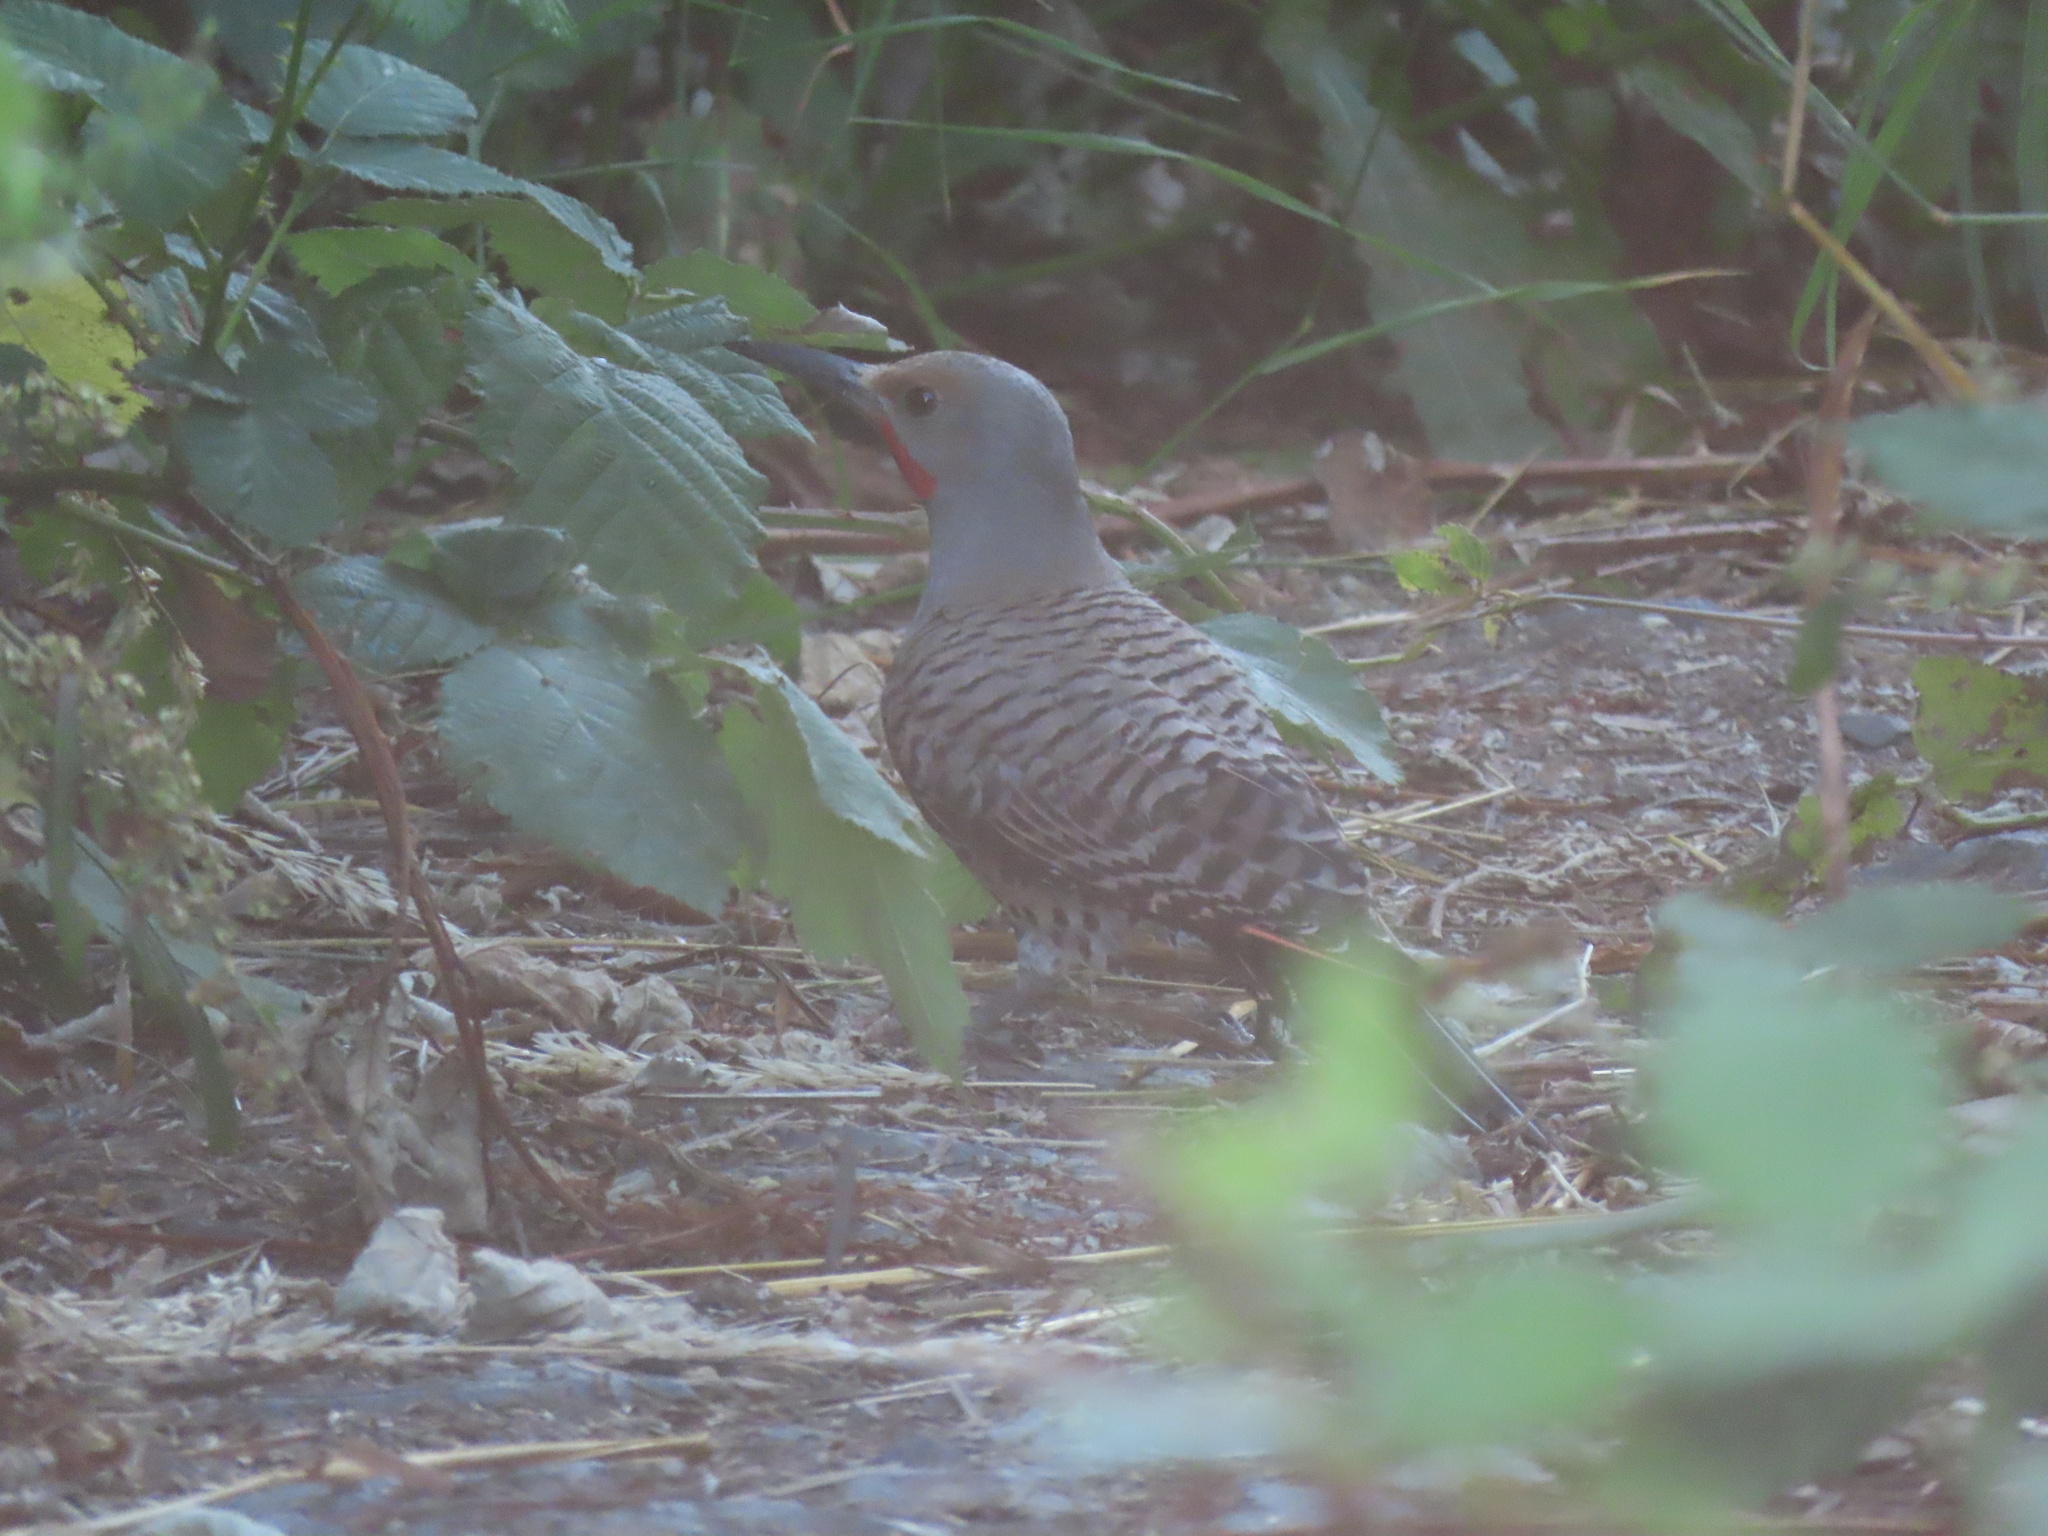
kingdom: Animalia
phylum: Chordata
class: Aves
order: Piciformes
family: Picidae
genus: Colaptes
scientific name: Colaptes auratus
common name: Northern flicker
